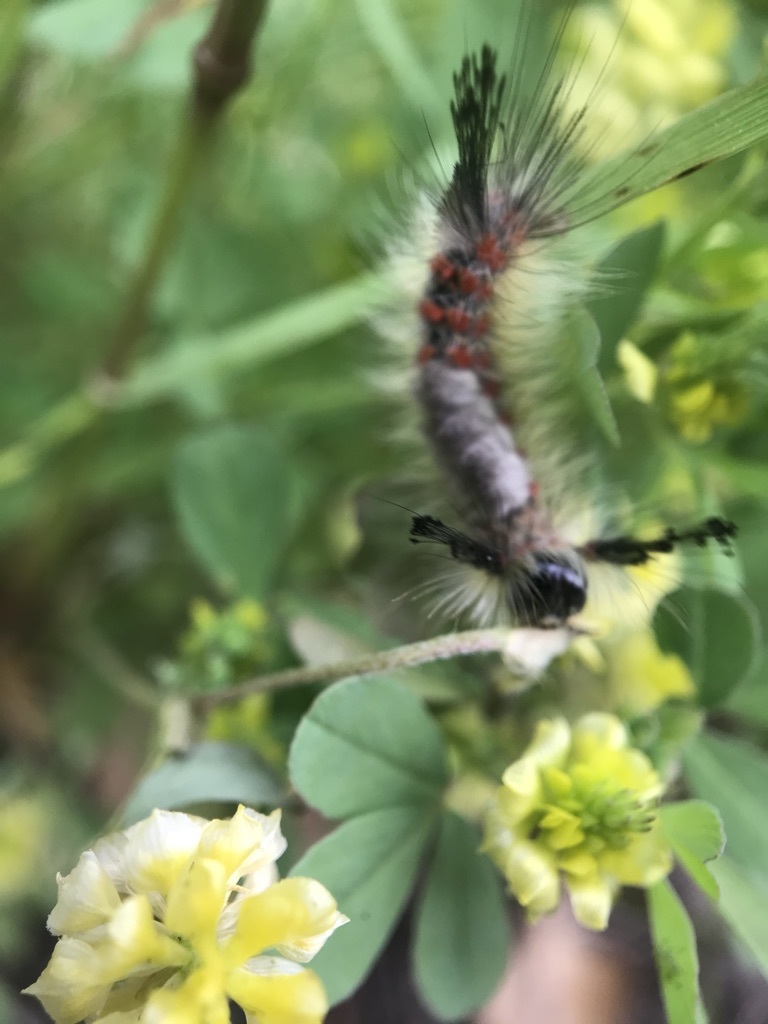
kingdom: Animalia
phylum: Arthropoda
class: Insecta
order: Lepidoptera
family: Erebidae
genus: Orgyia
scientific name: Orgyia
